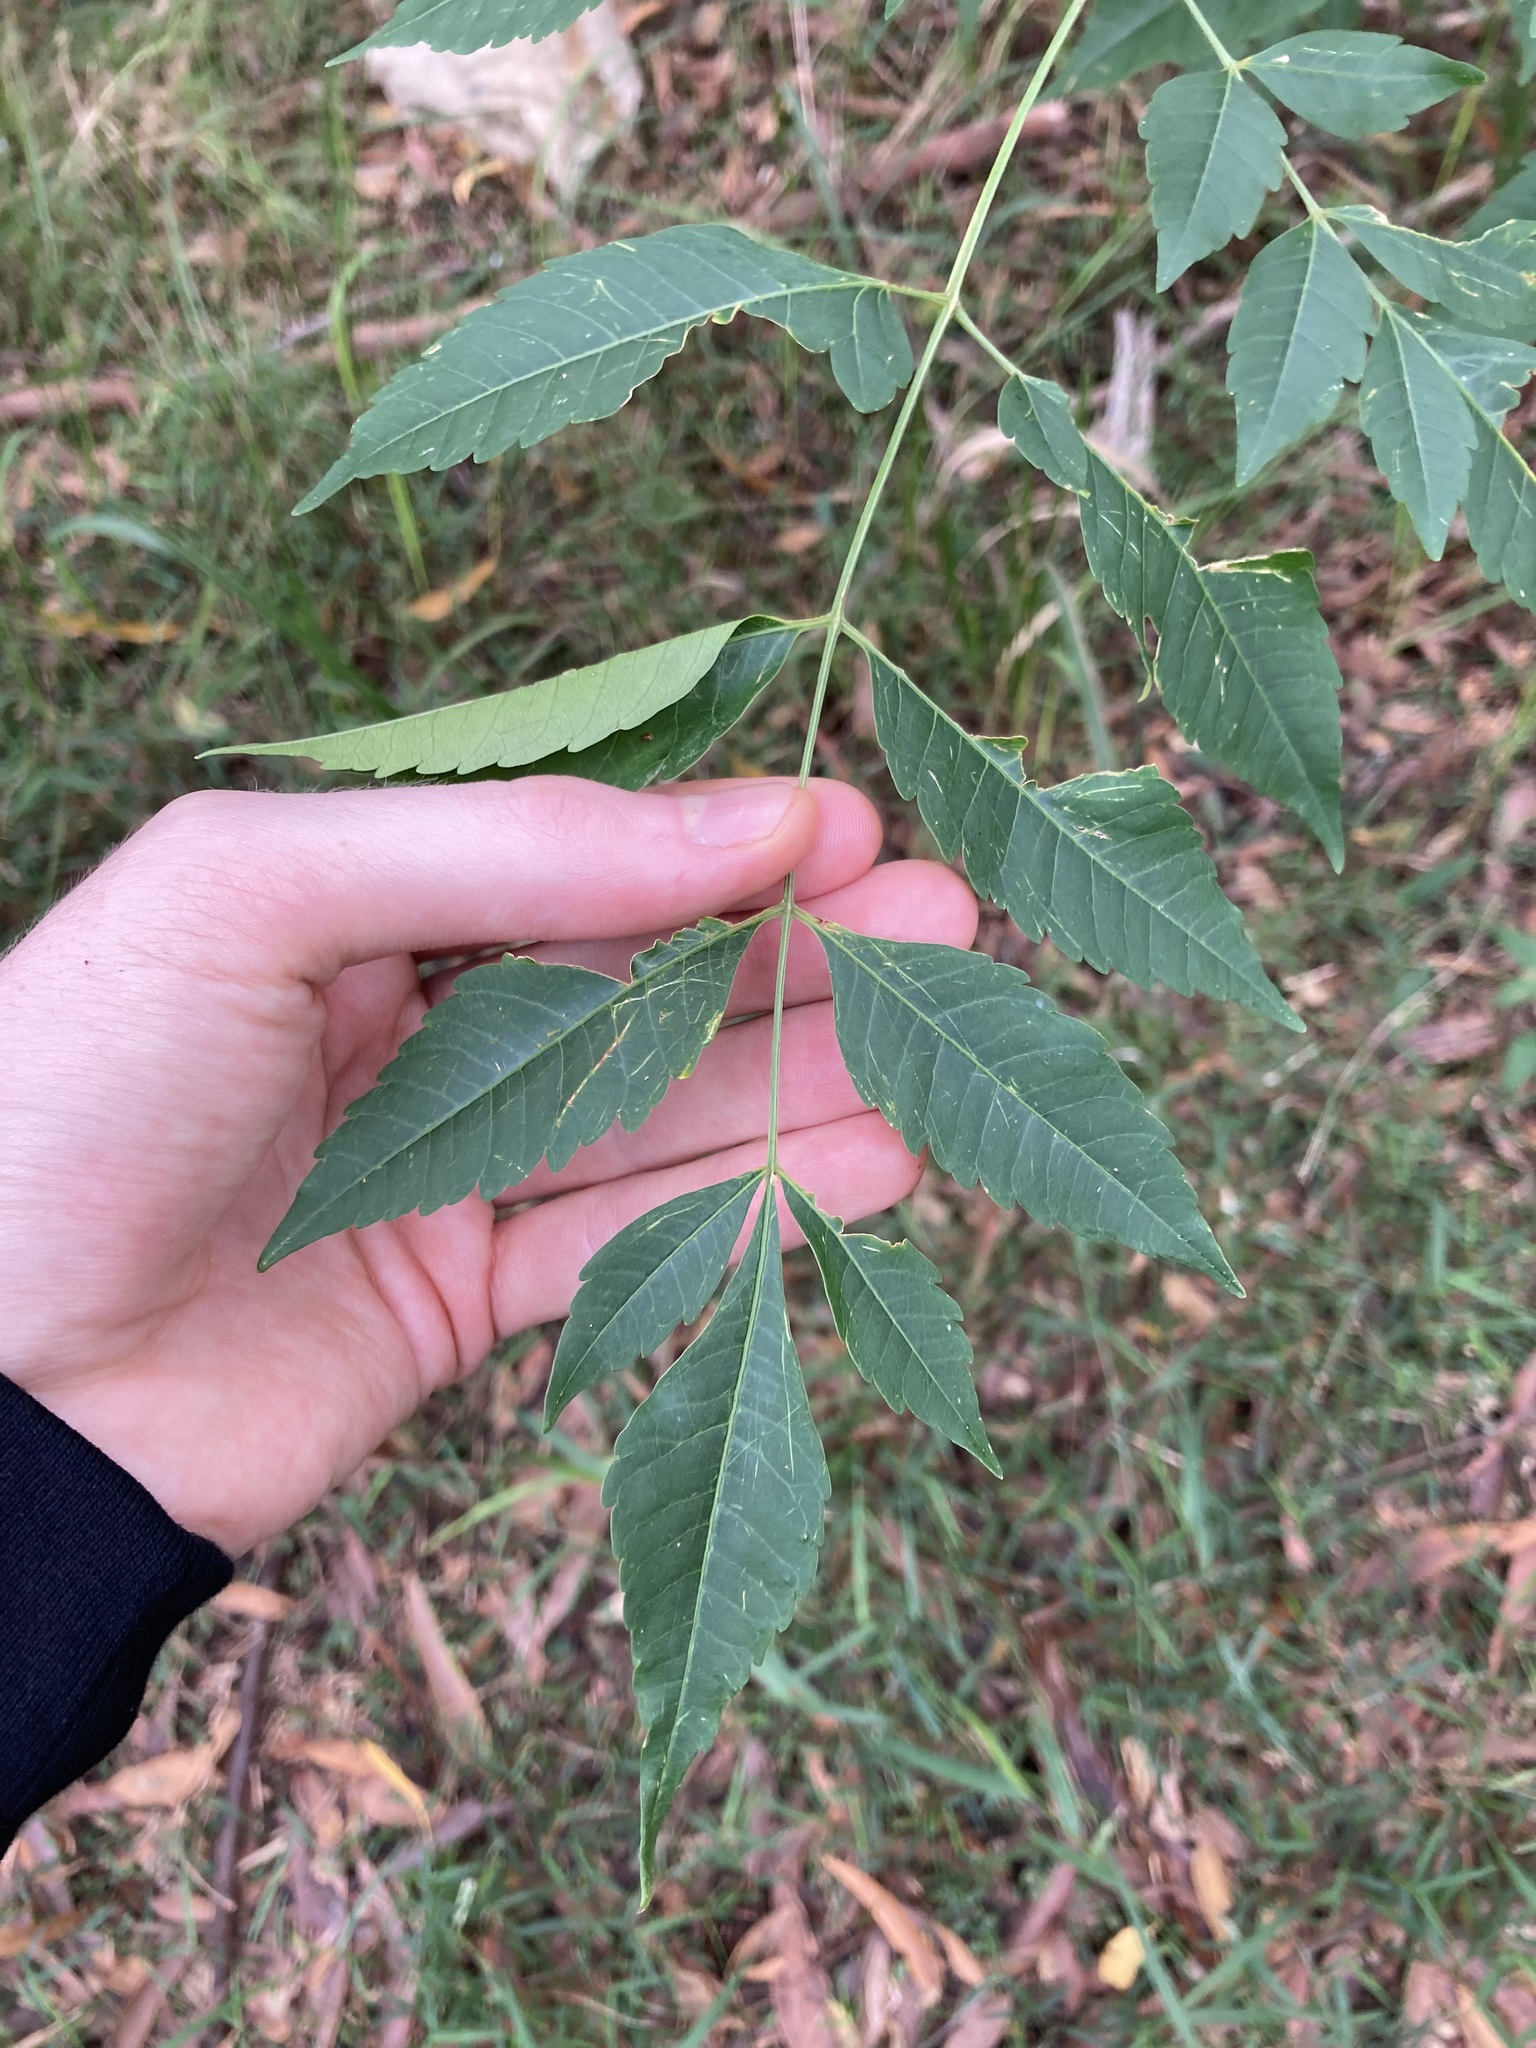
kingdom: Plantae
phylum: Tracheophyta
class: Magnoliopsida
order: Sapindales
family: Meliaceae
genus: Melia
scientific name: Melia azedarach
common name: Chinaberrytree
